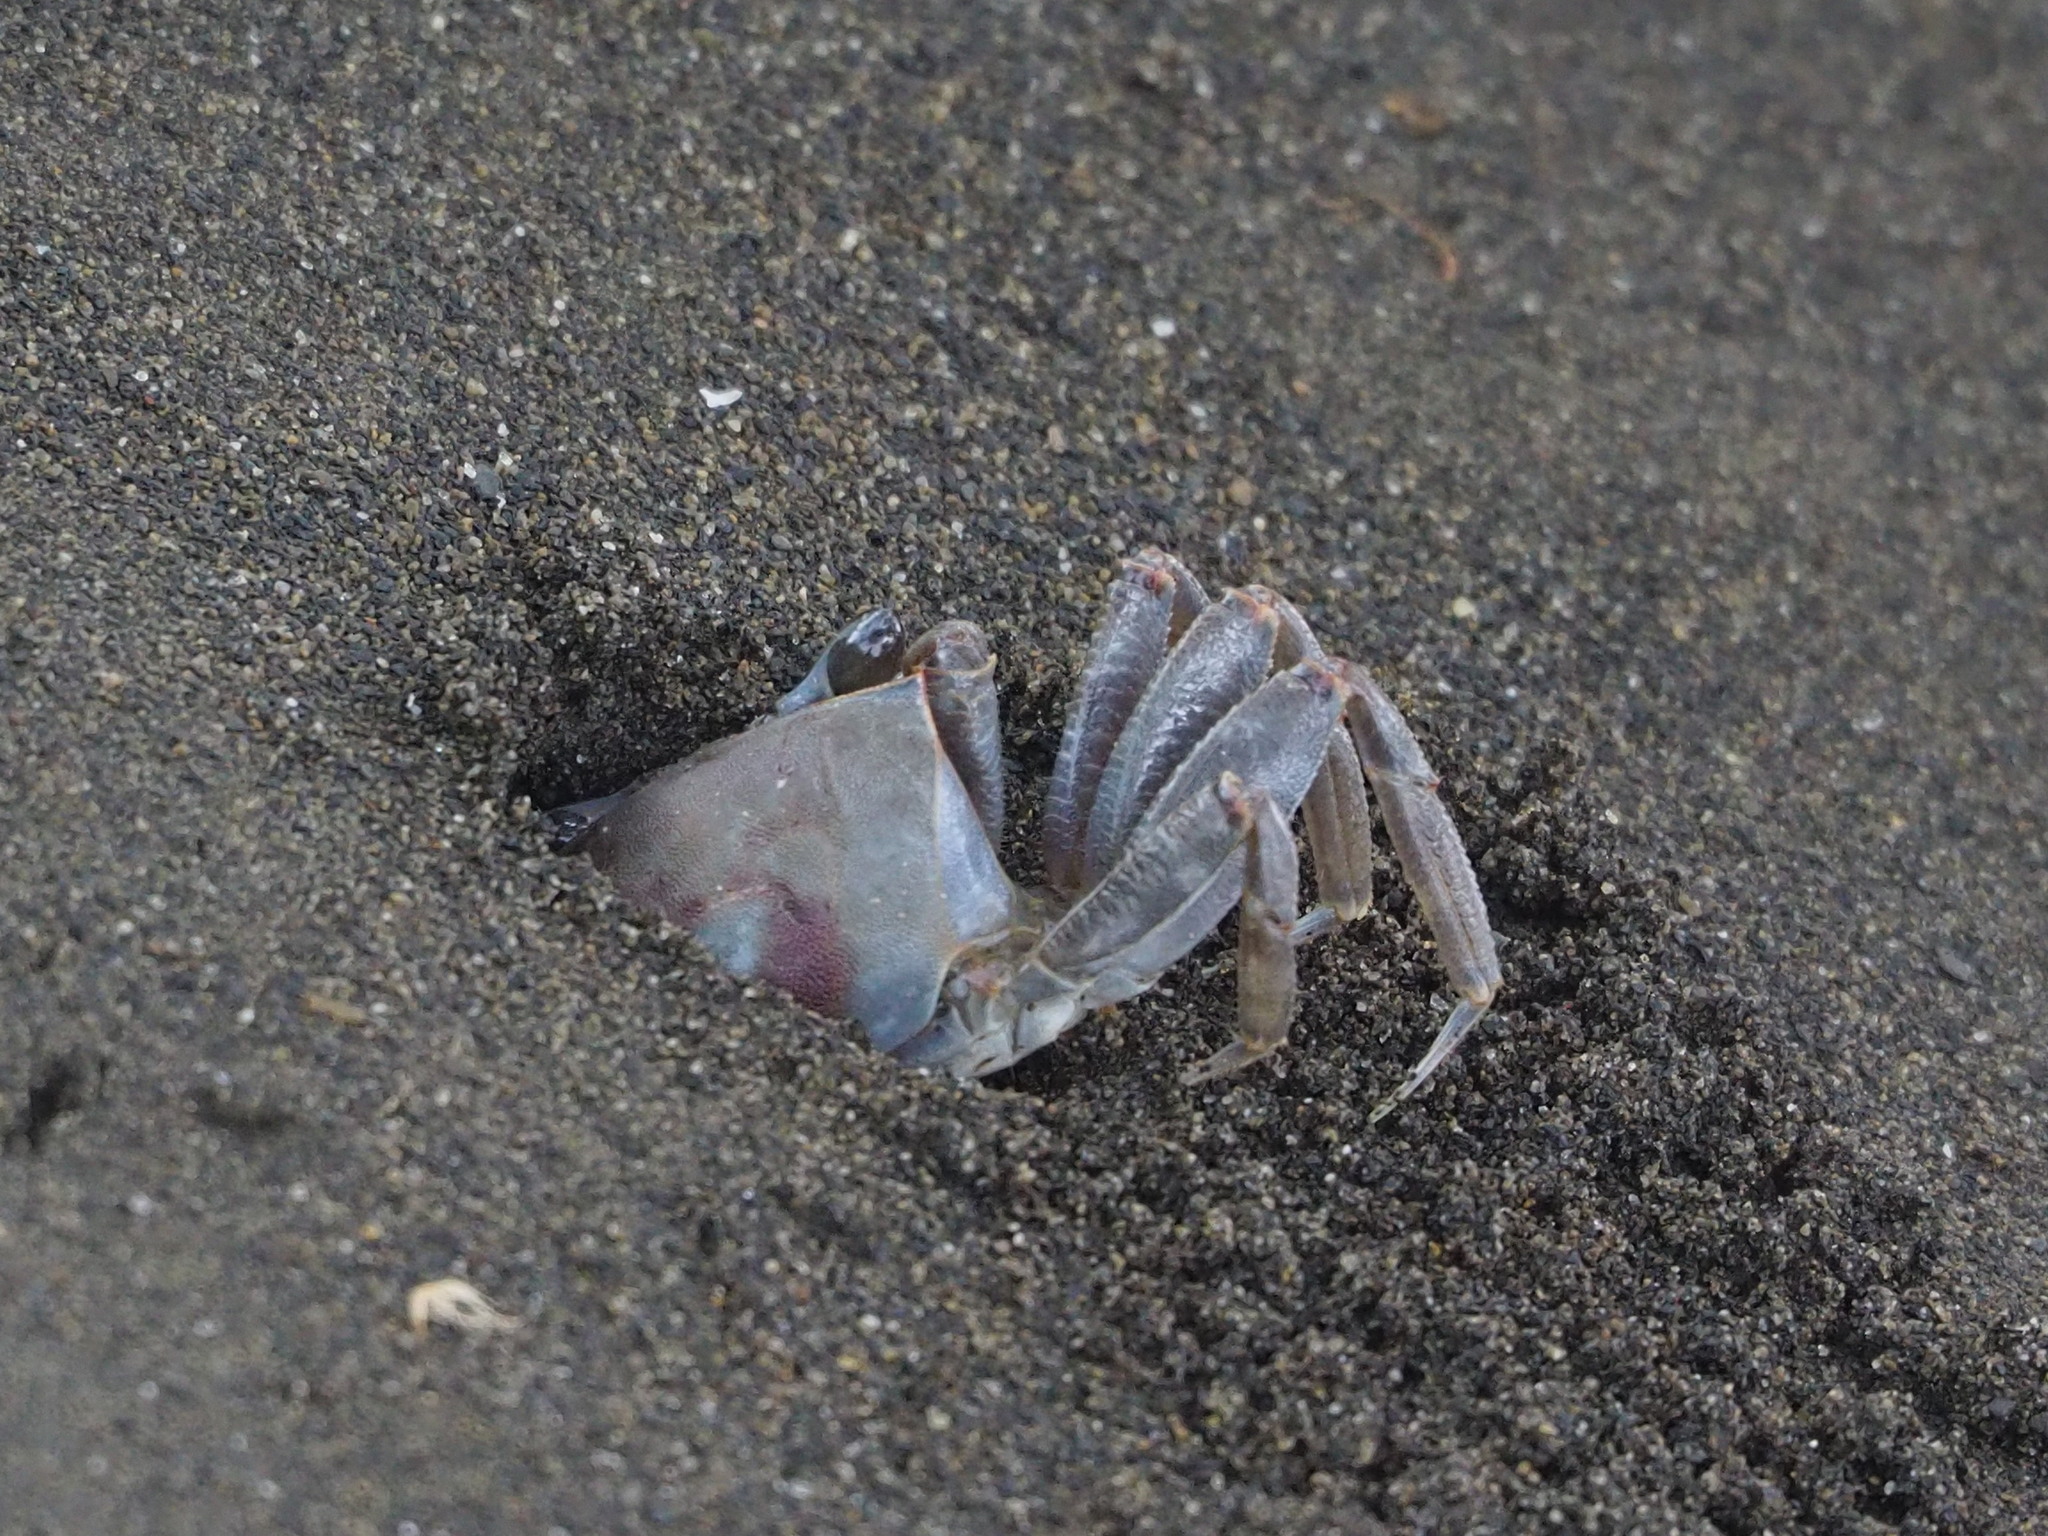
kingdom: Animalia
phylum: Arthropoda
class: Malacostraca
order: Decapoda
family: Ocypodidae
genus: Ocypode
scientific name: Ocypode ceratophthalmus
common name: Indo-pacific ghost crab
